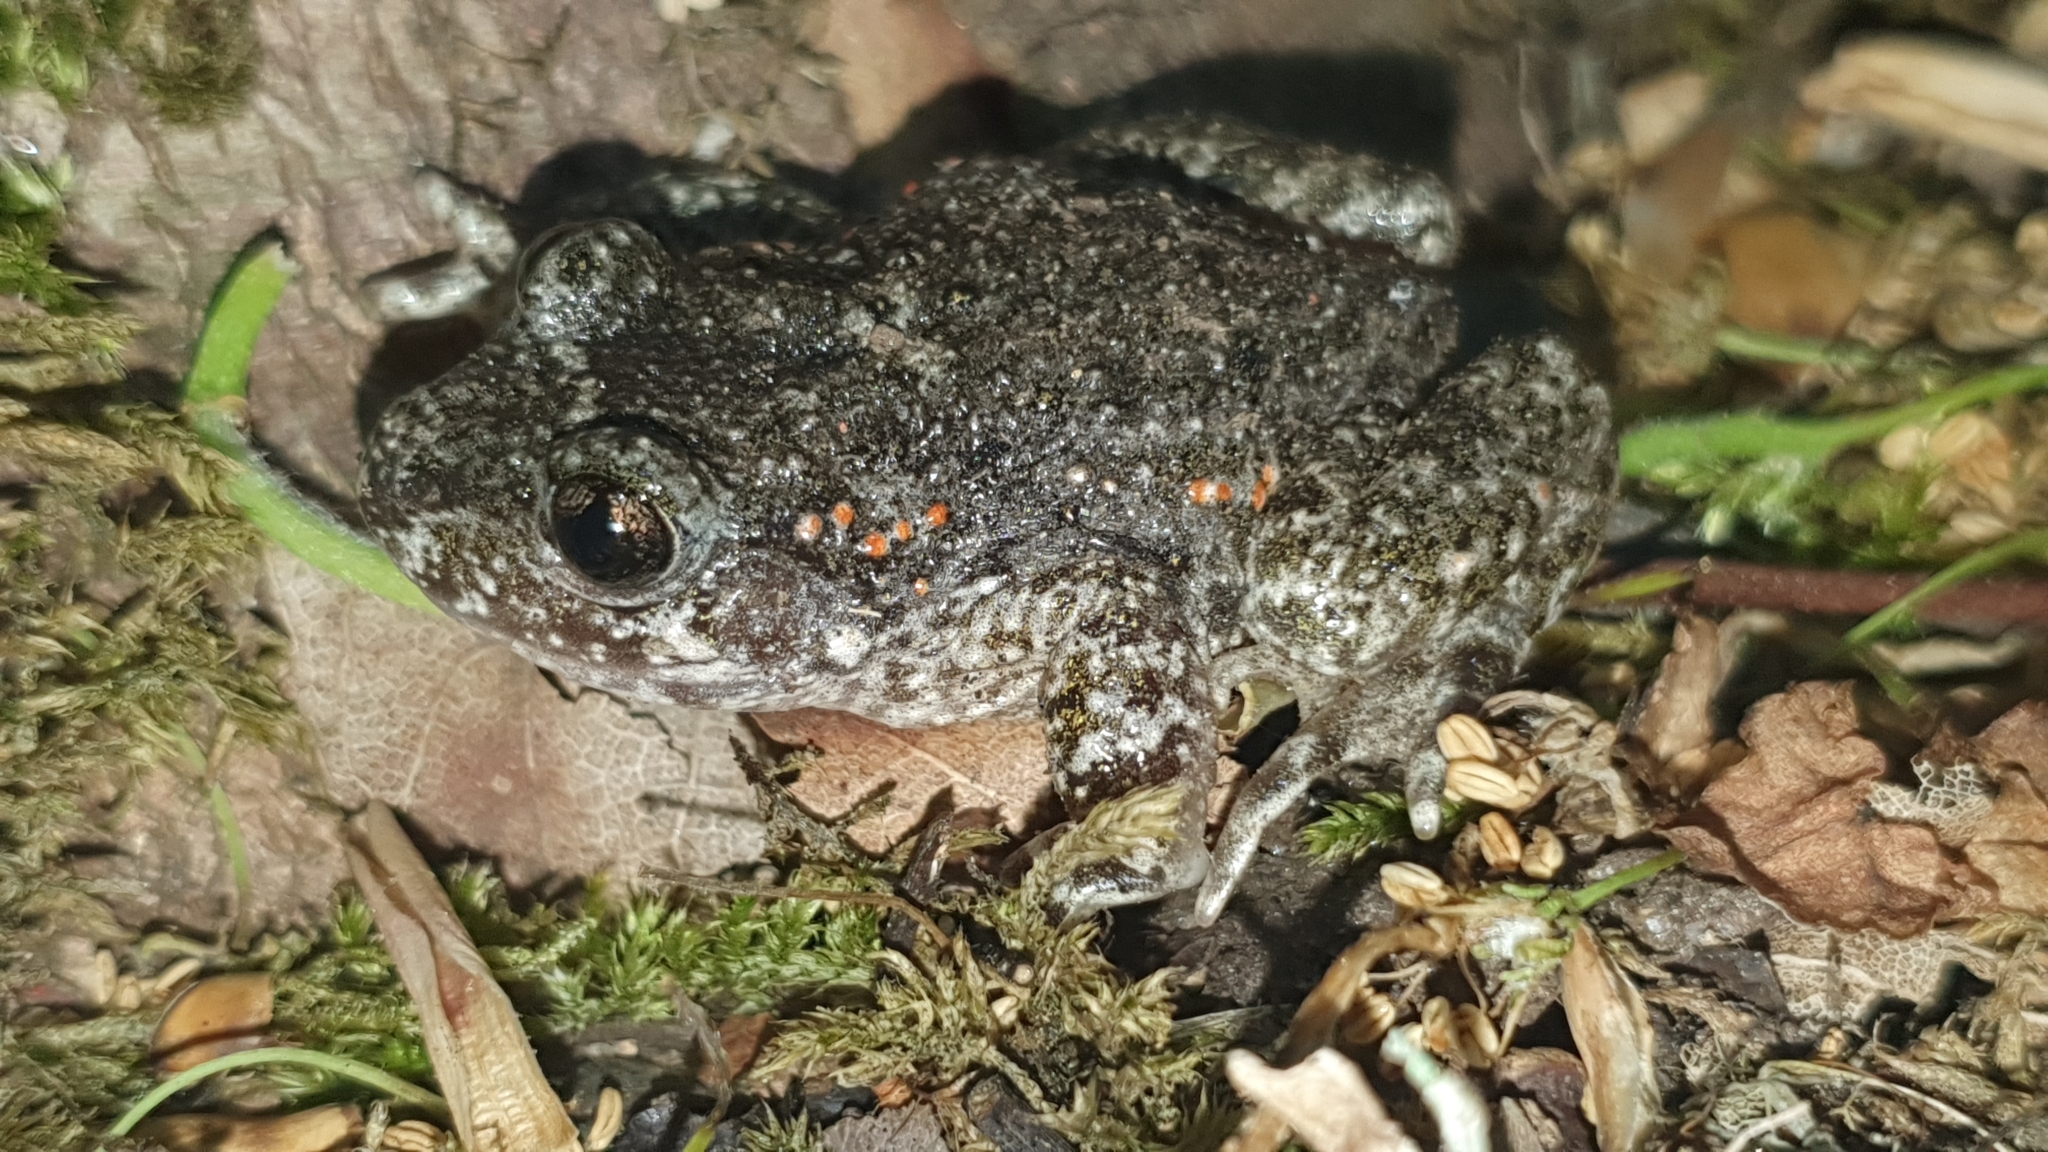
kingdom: Animalia
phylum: Chordata
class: Amphibia
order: Anura
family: Alytidae
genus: Alytes
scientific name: Alytes obstetricans
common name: Midwife toad
